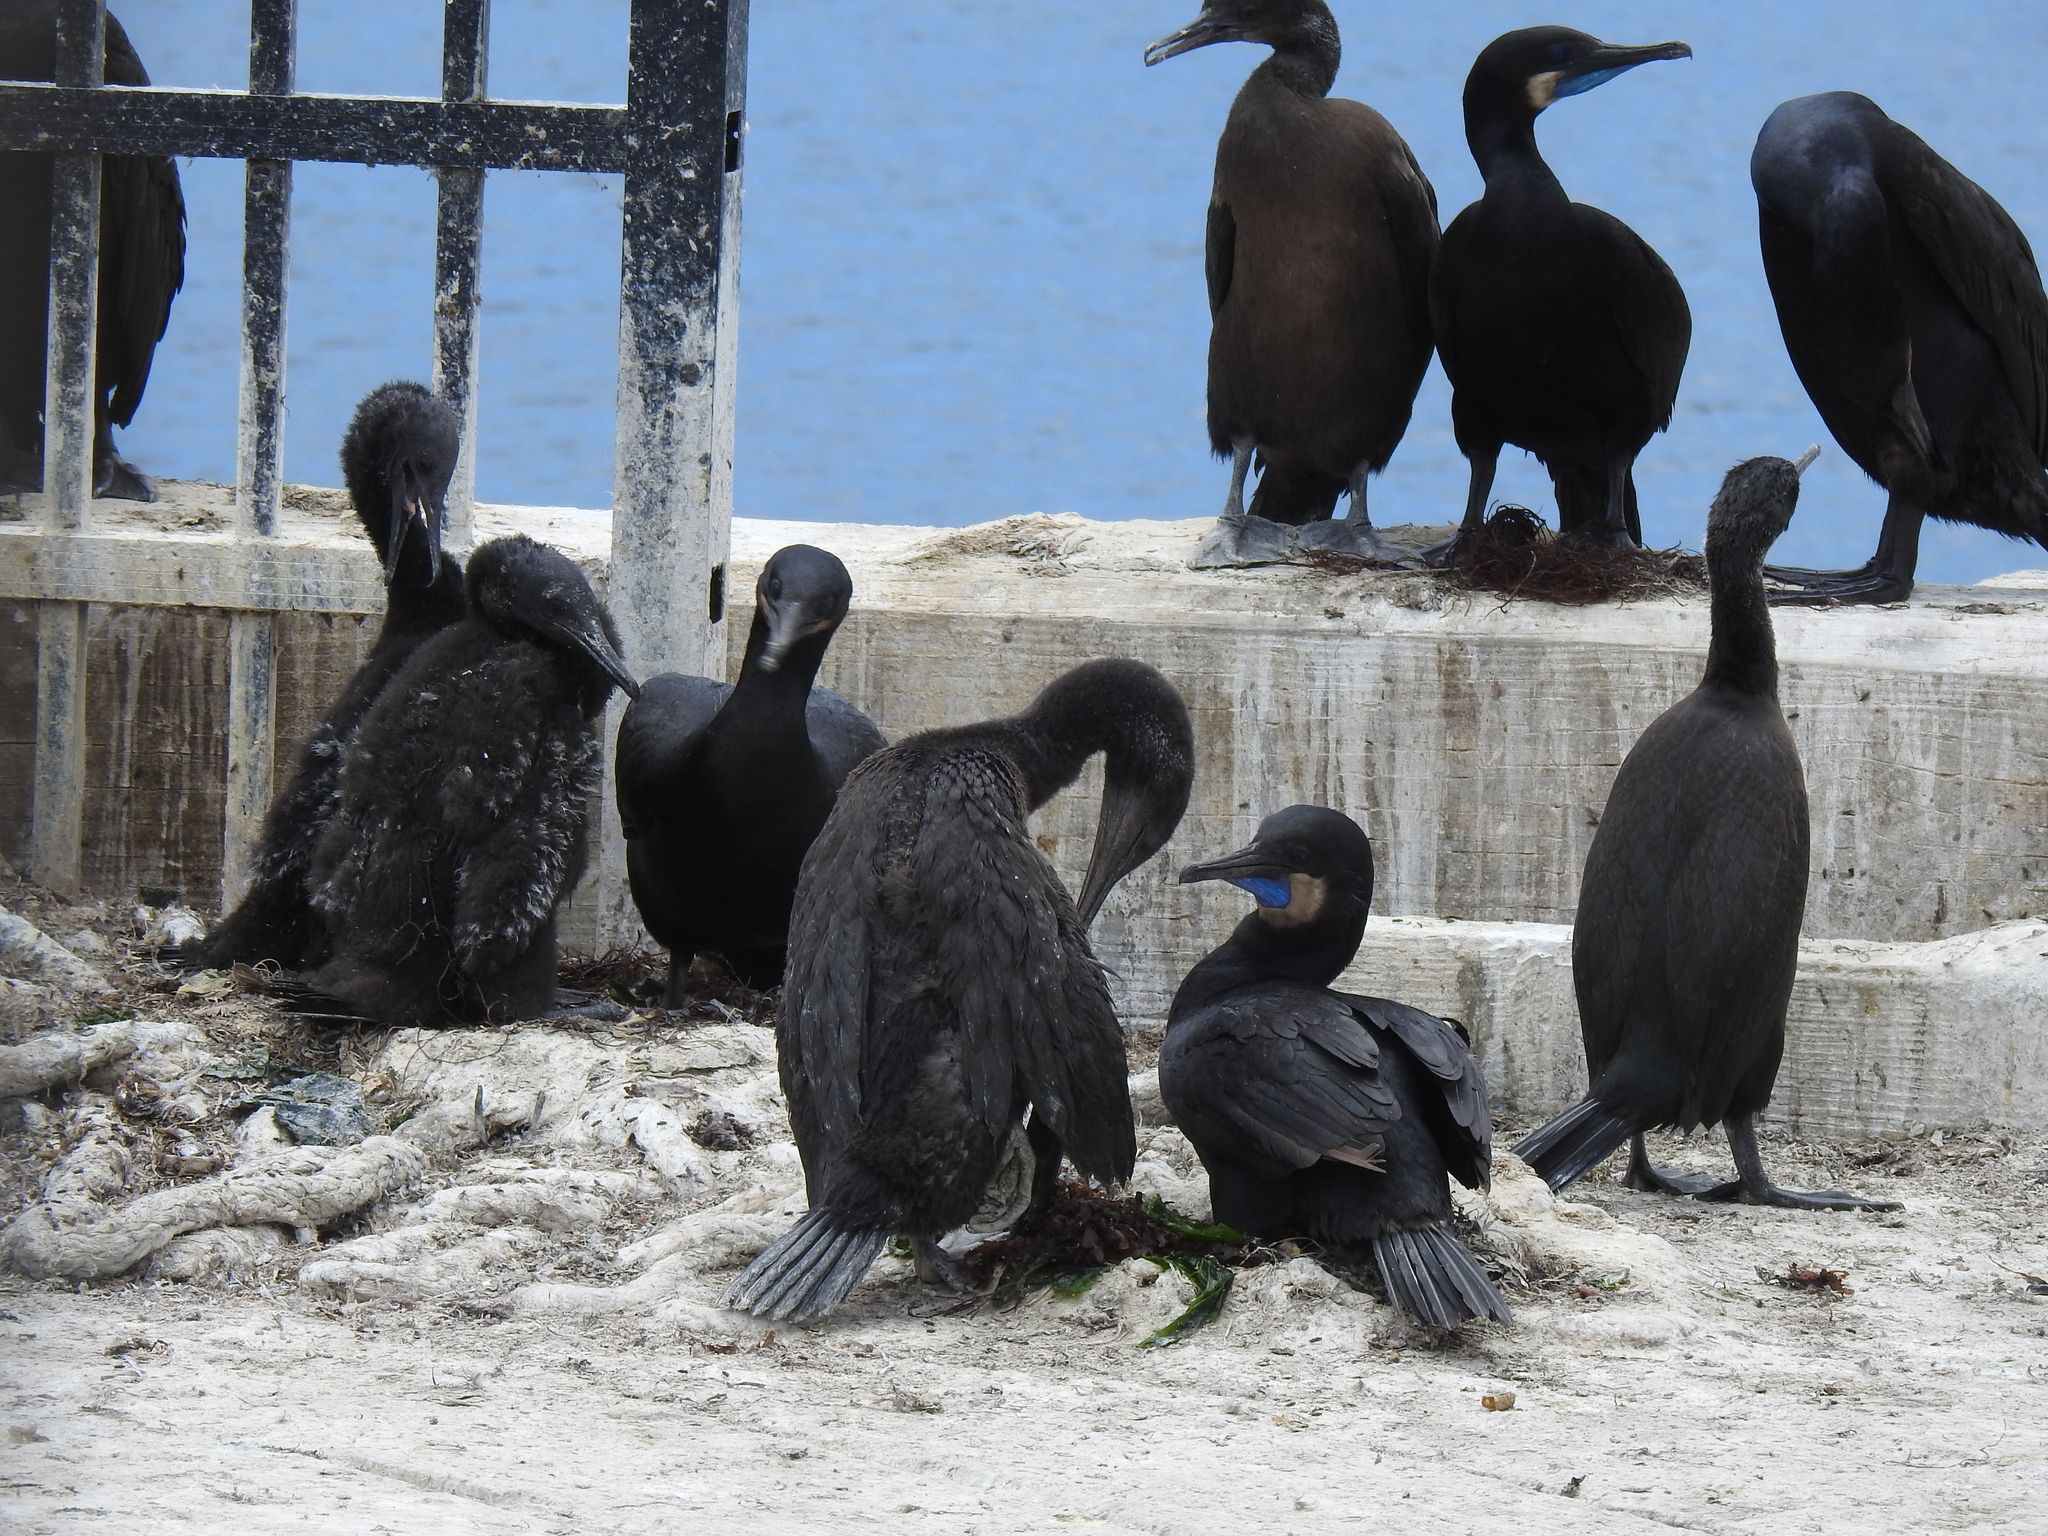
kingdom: Animalia
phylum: Chordata
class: Aves
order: Suliformes
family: Phalacrocoracidae
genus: Urile
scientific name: Urile penicillatus
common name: Brandt's cormorant
